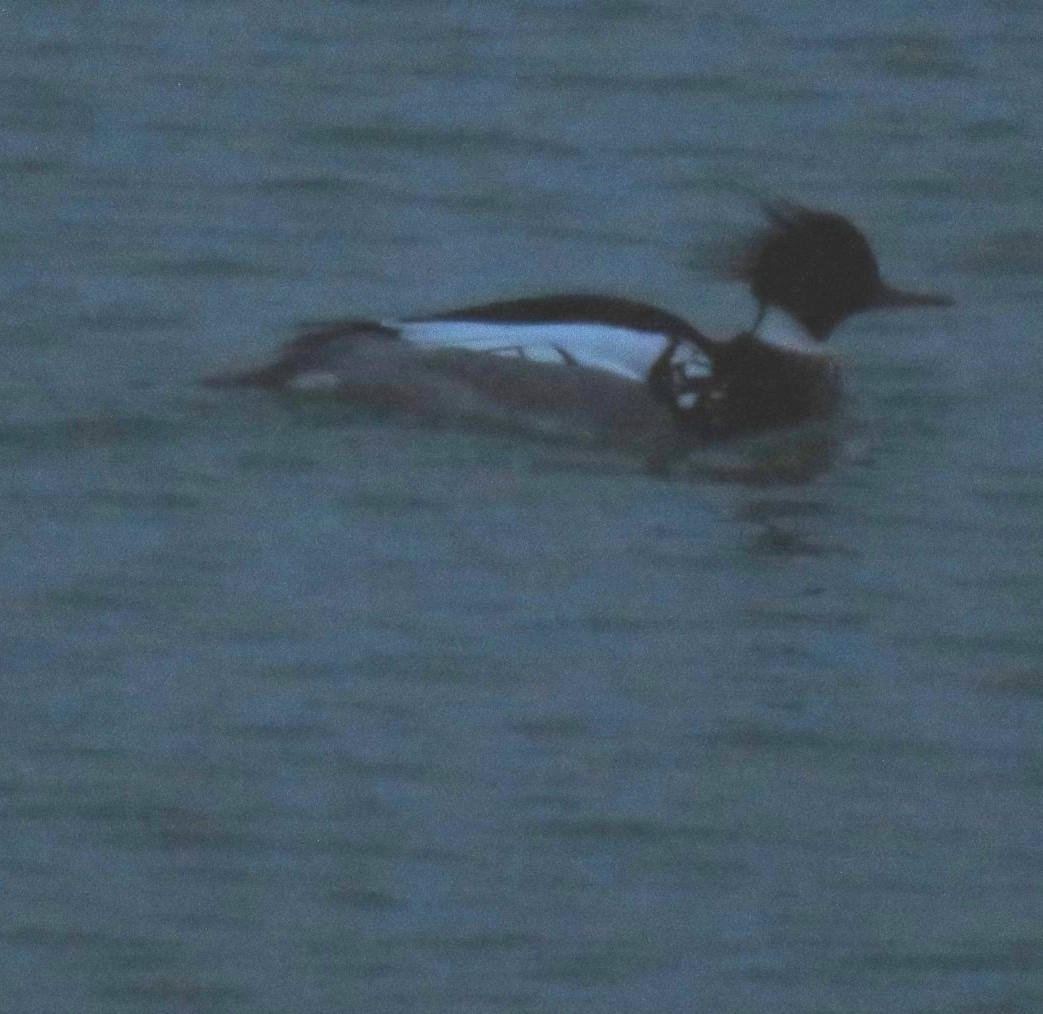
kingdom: Animalia
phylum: Chordata
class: Aves
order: Anseriformes
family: Anatidae
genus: Mergus
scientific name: Mergus serrator
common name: Red-breasted merganser
